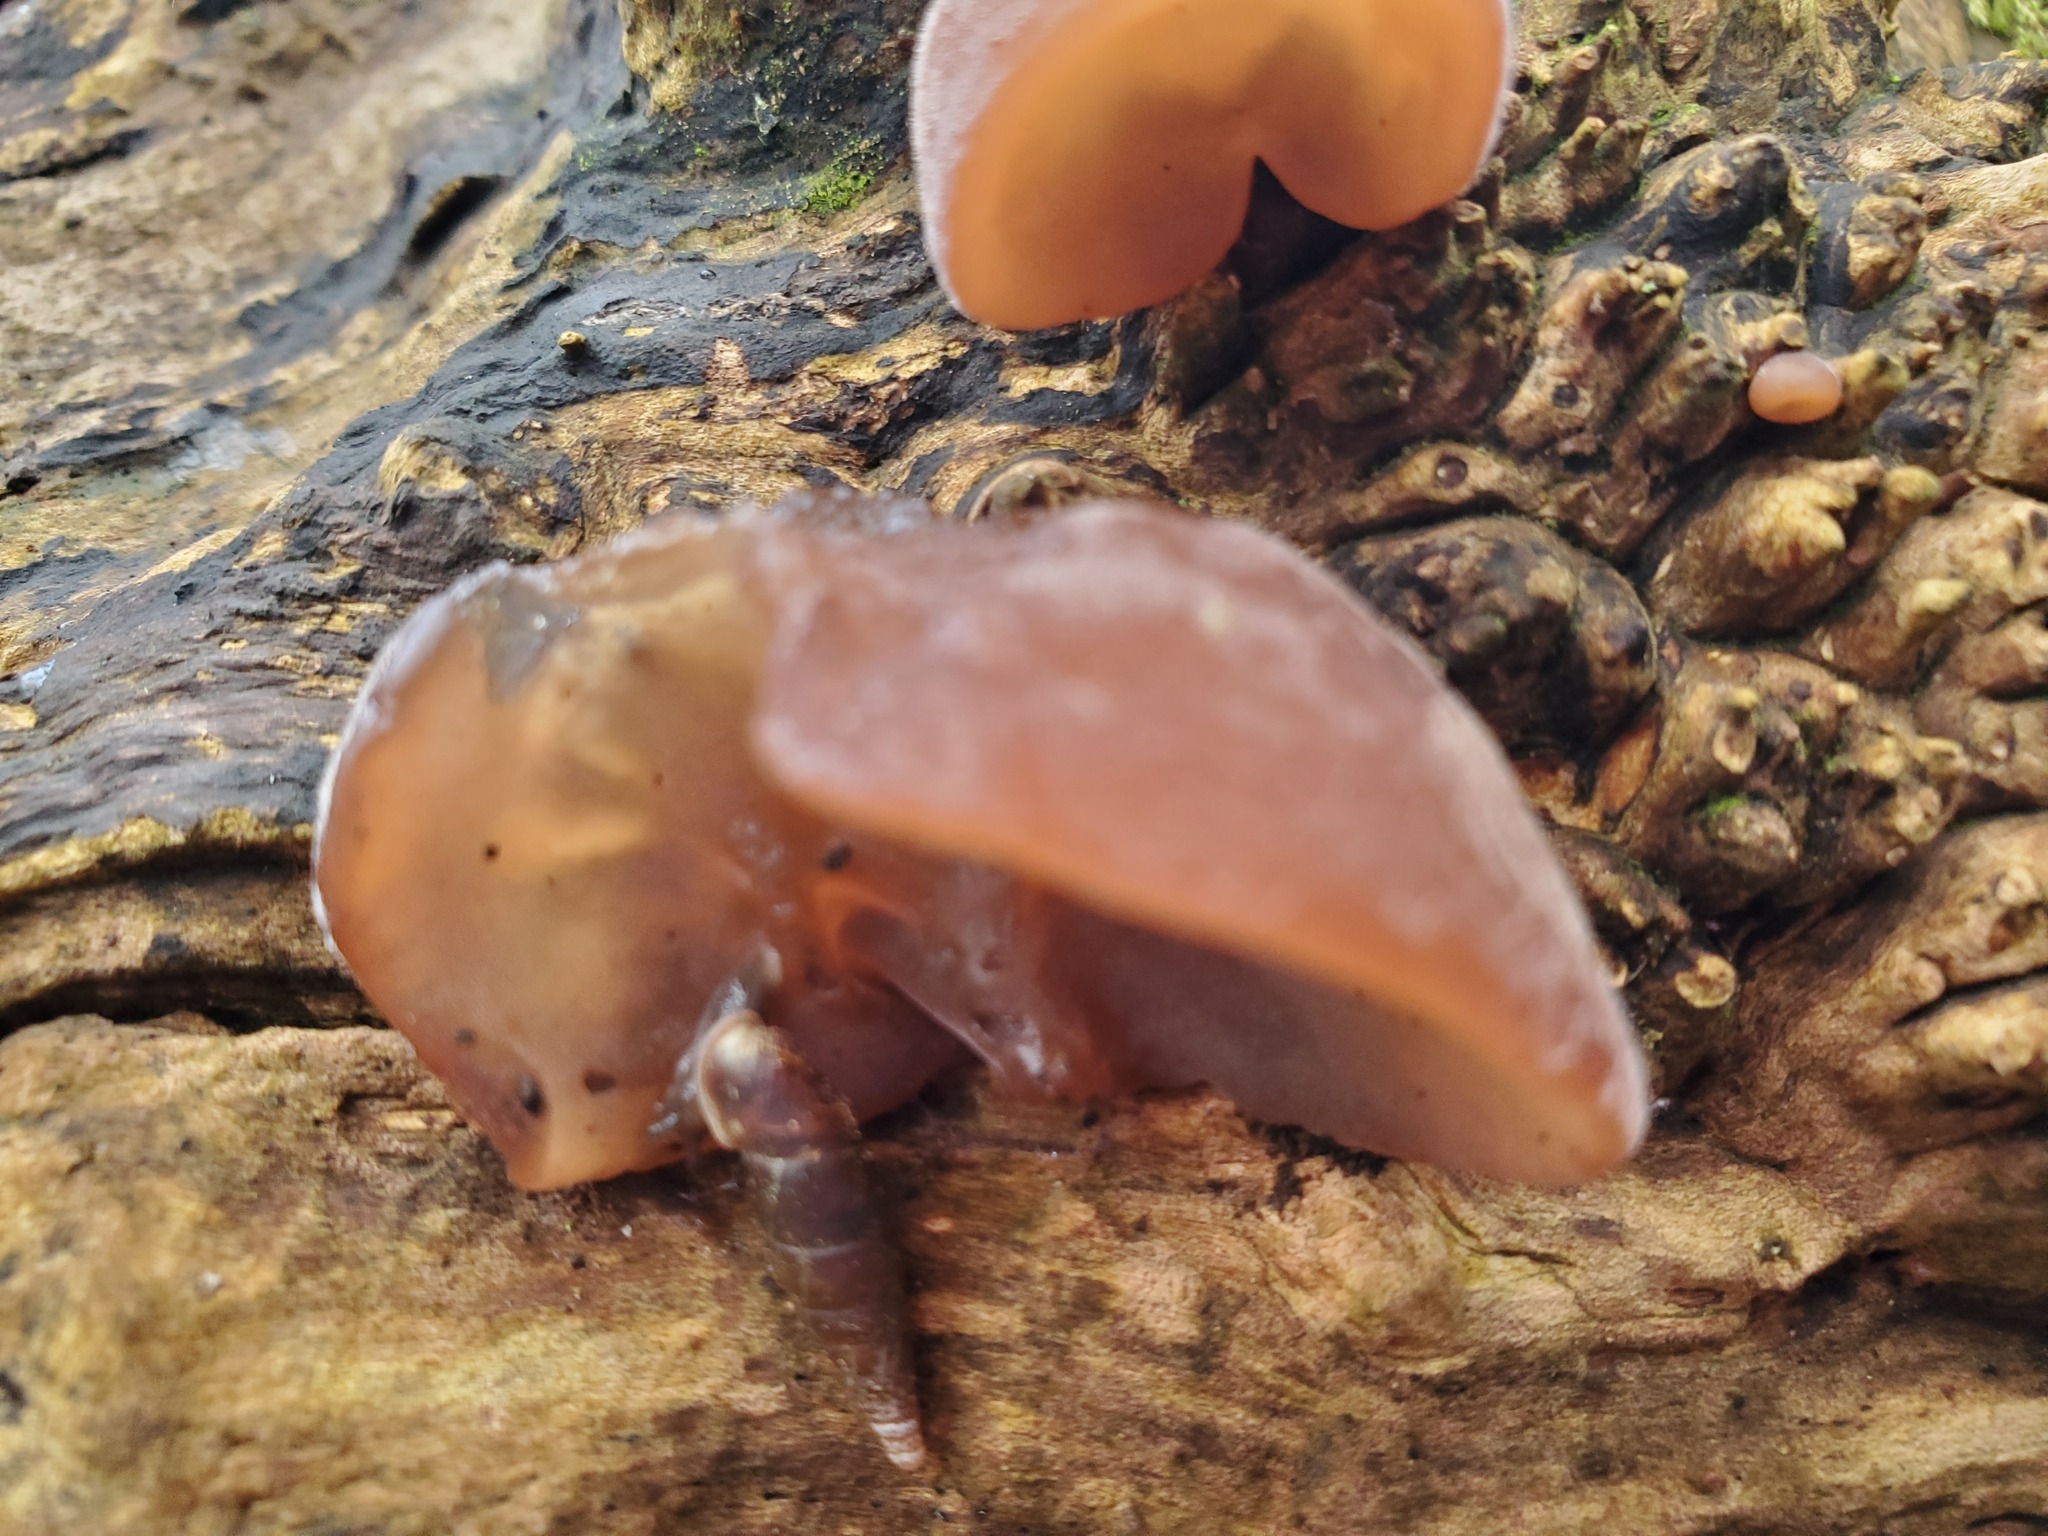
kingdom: Fungi
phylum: Basidiomycota
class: Agaricomycetes
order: Auriculariales
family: Auriculariaceae
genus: Auricularia
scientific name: Auricularia auricula-judae
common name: Jelly ear
